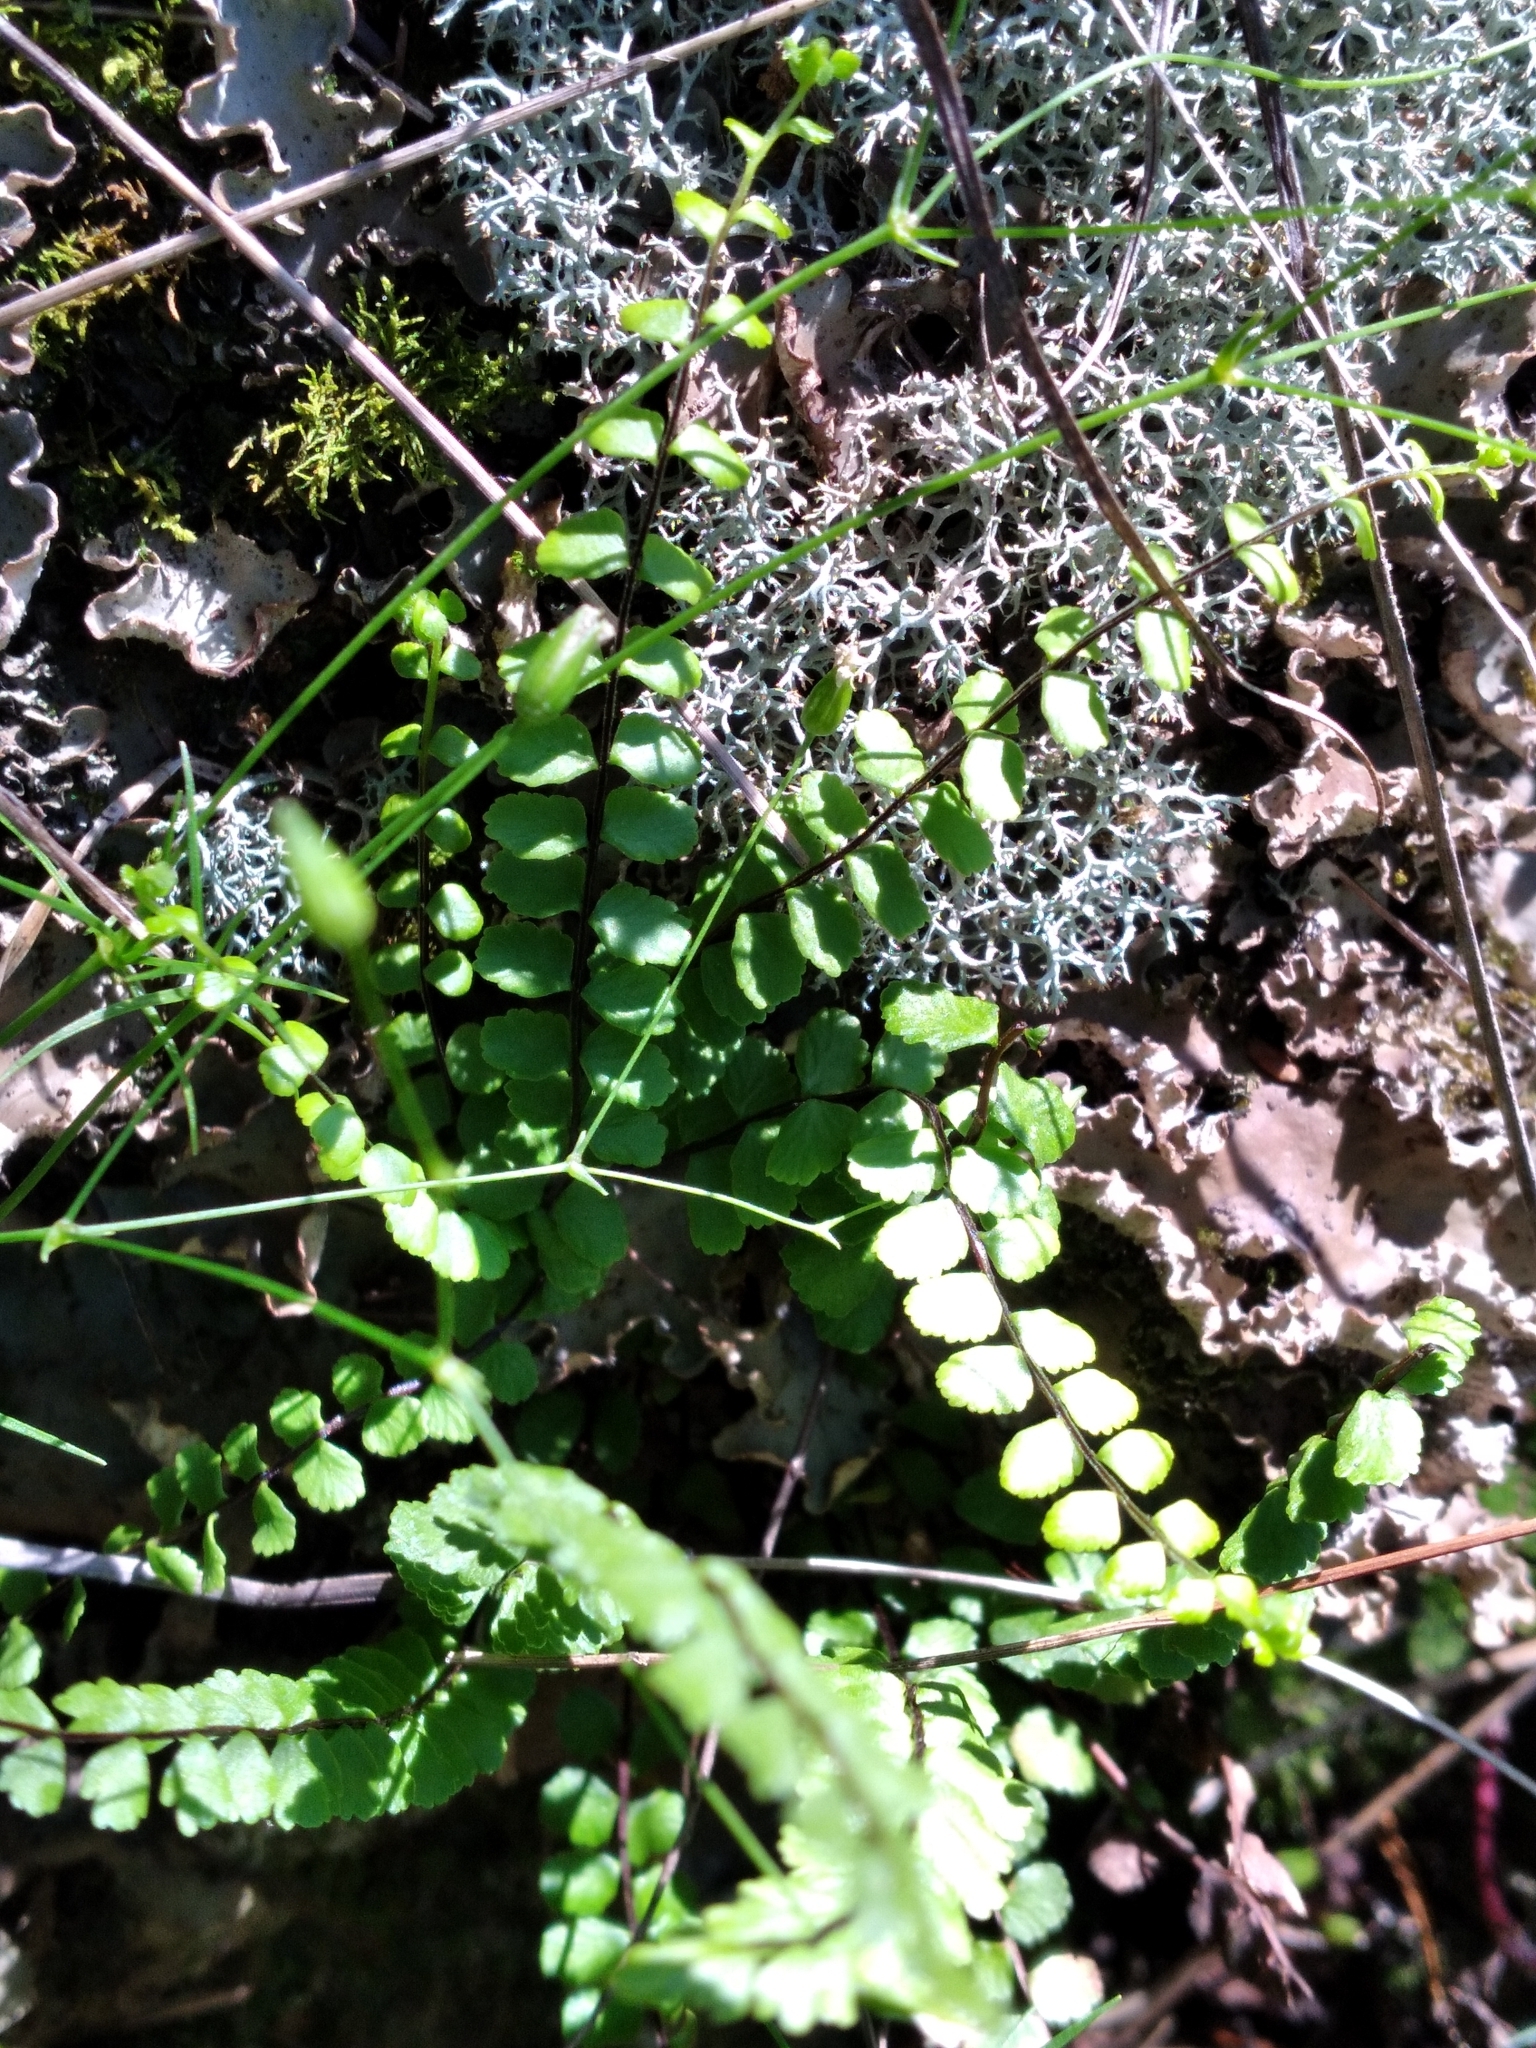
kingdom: Plantae
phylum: Tracheophyta
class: Polypodiopsida
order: Polypodiales
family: Aspleniaceae
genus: Asplenium
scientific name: Asplenium trichomanes
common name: Maidenhair spleenwort
